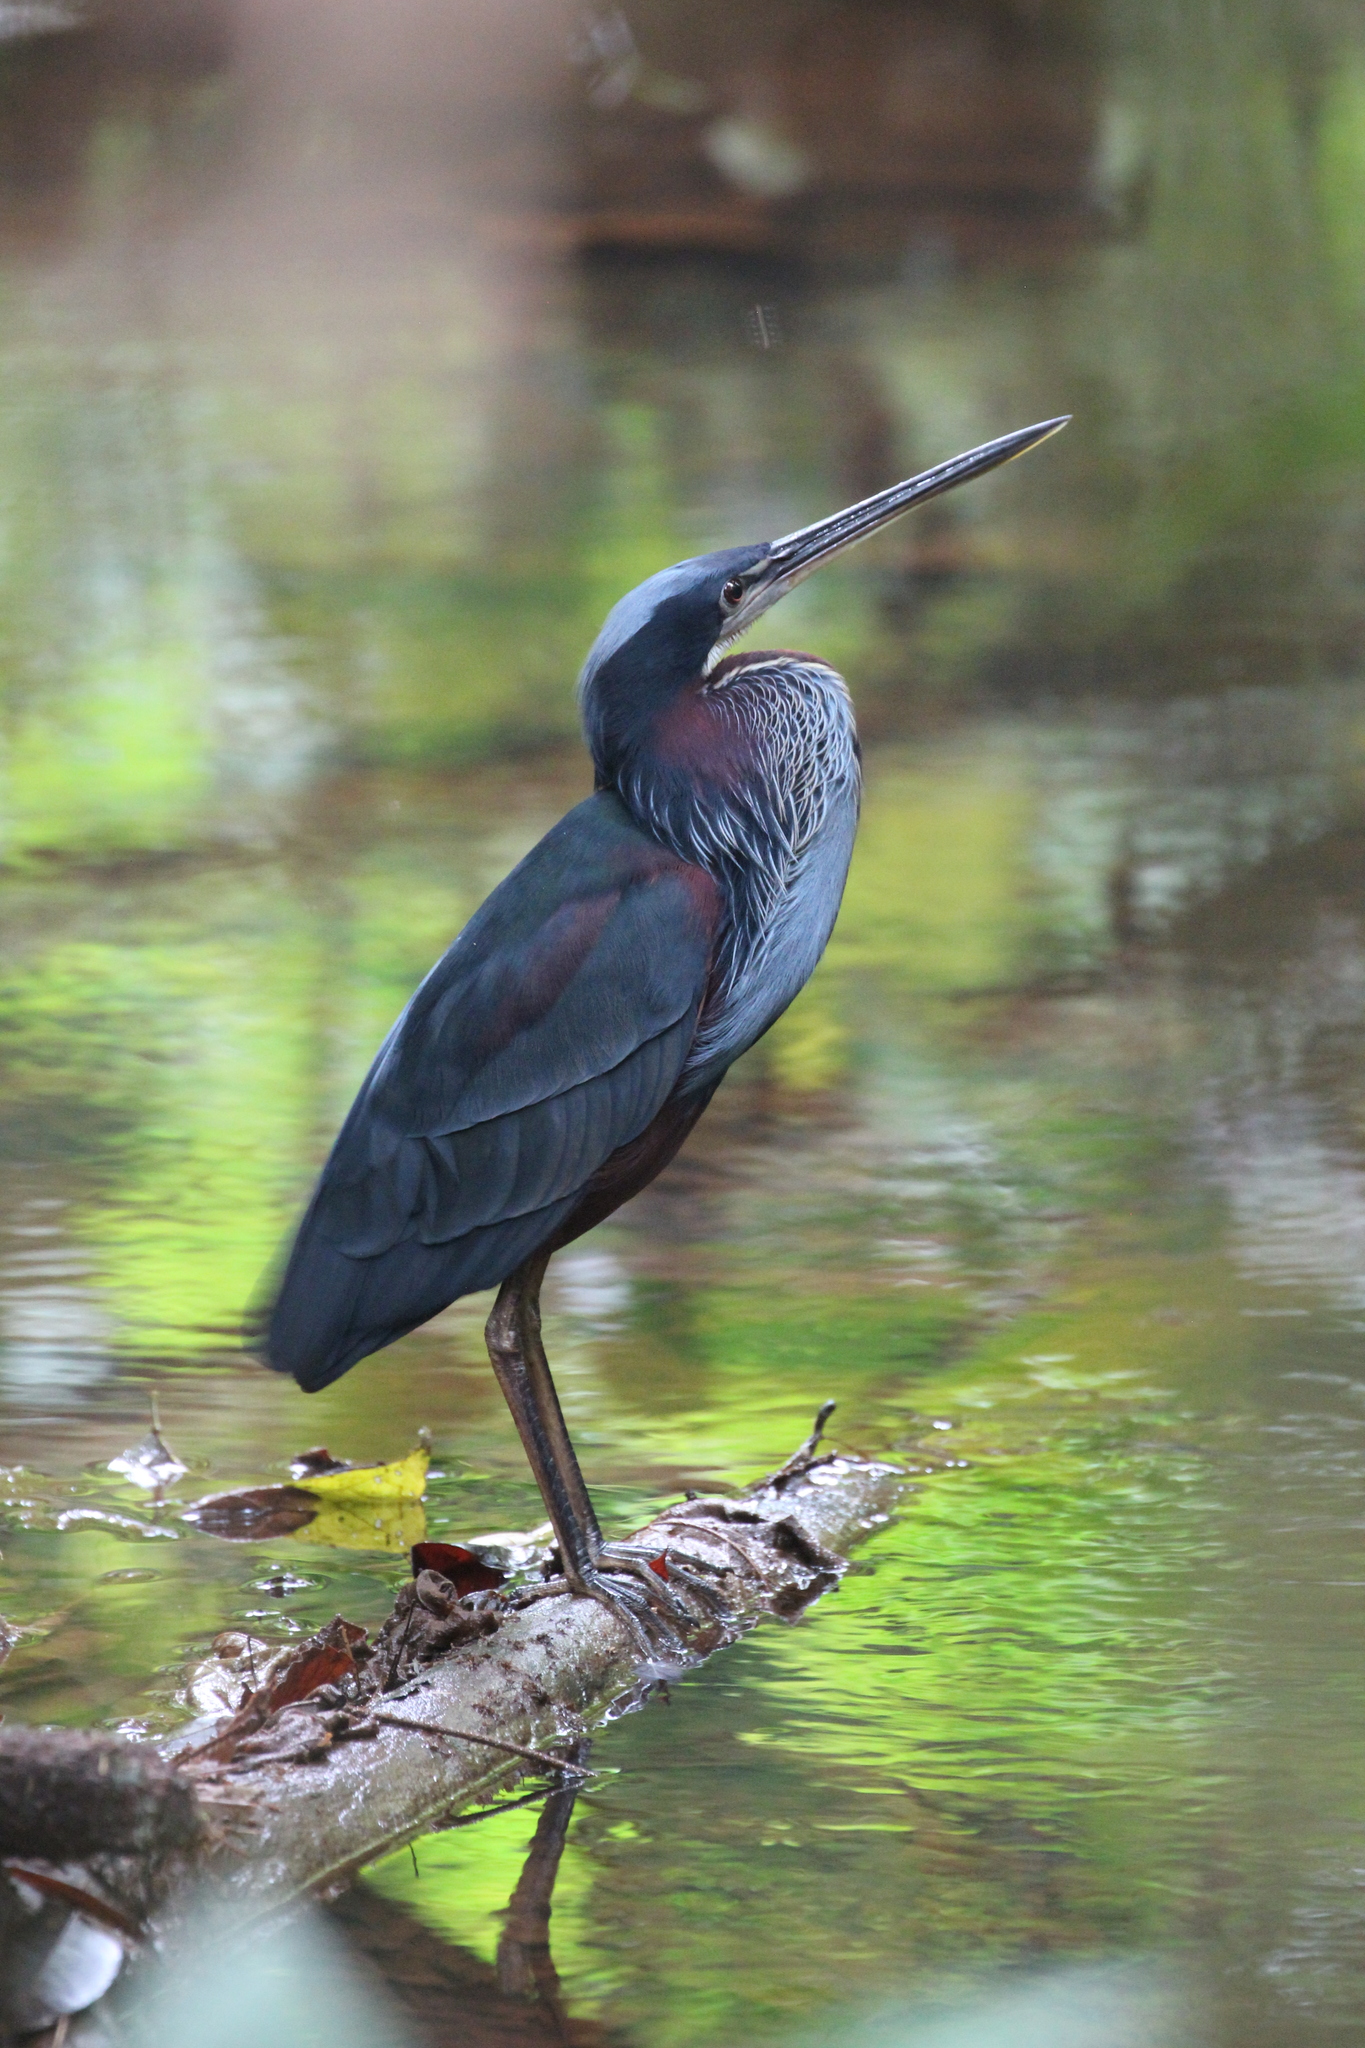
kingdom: Animalia
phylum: Chordata
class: Aves
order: Pelecaniformes
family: Ardeidae
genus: Agamia
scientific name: Agamia agami
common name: Agami heron
